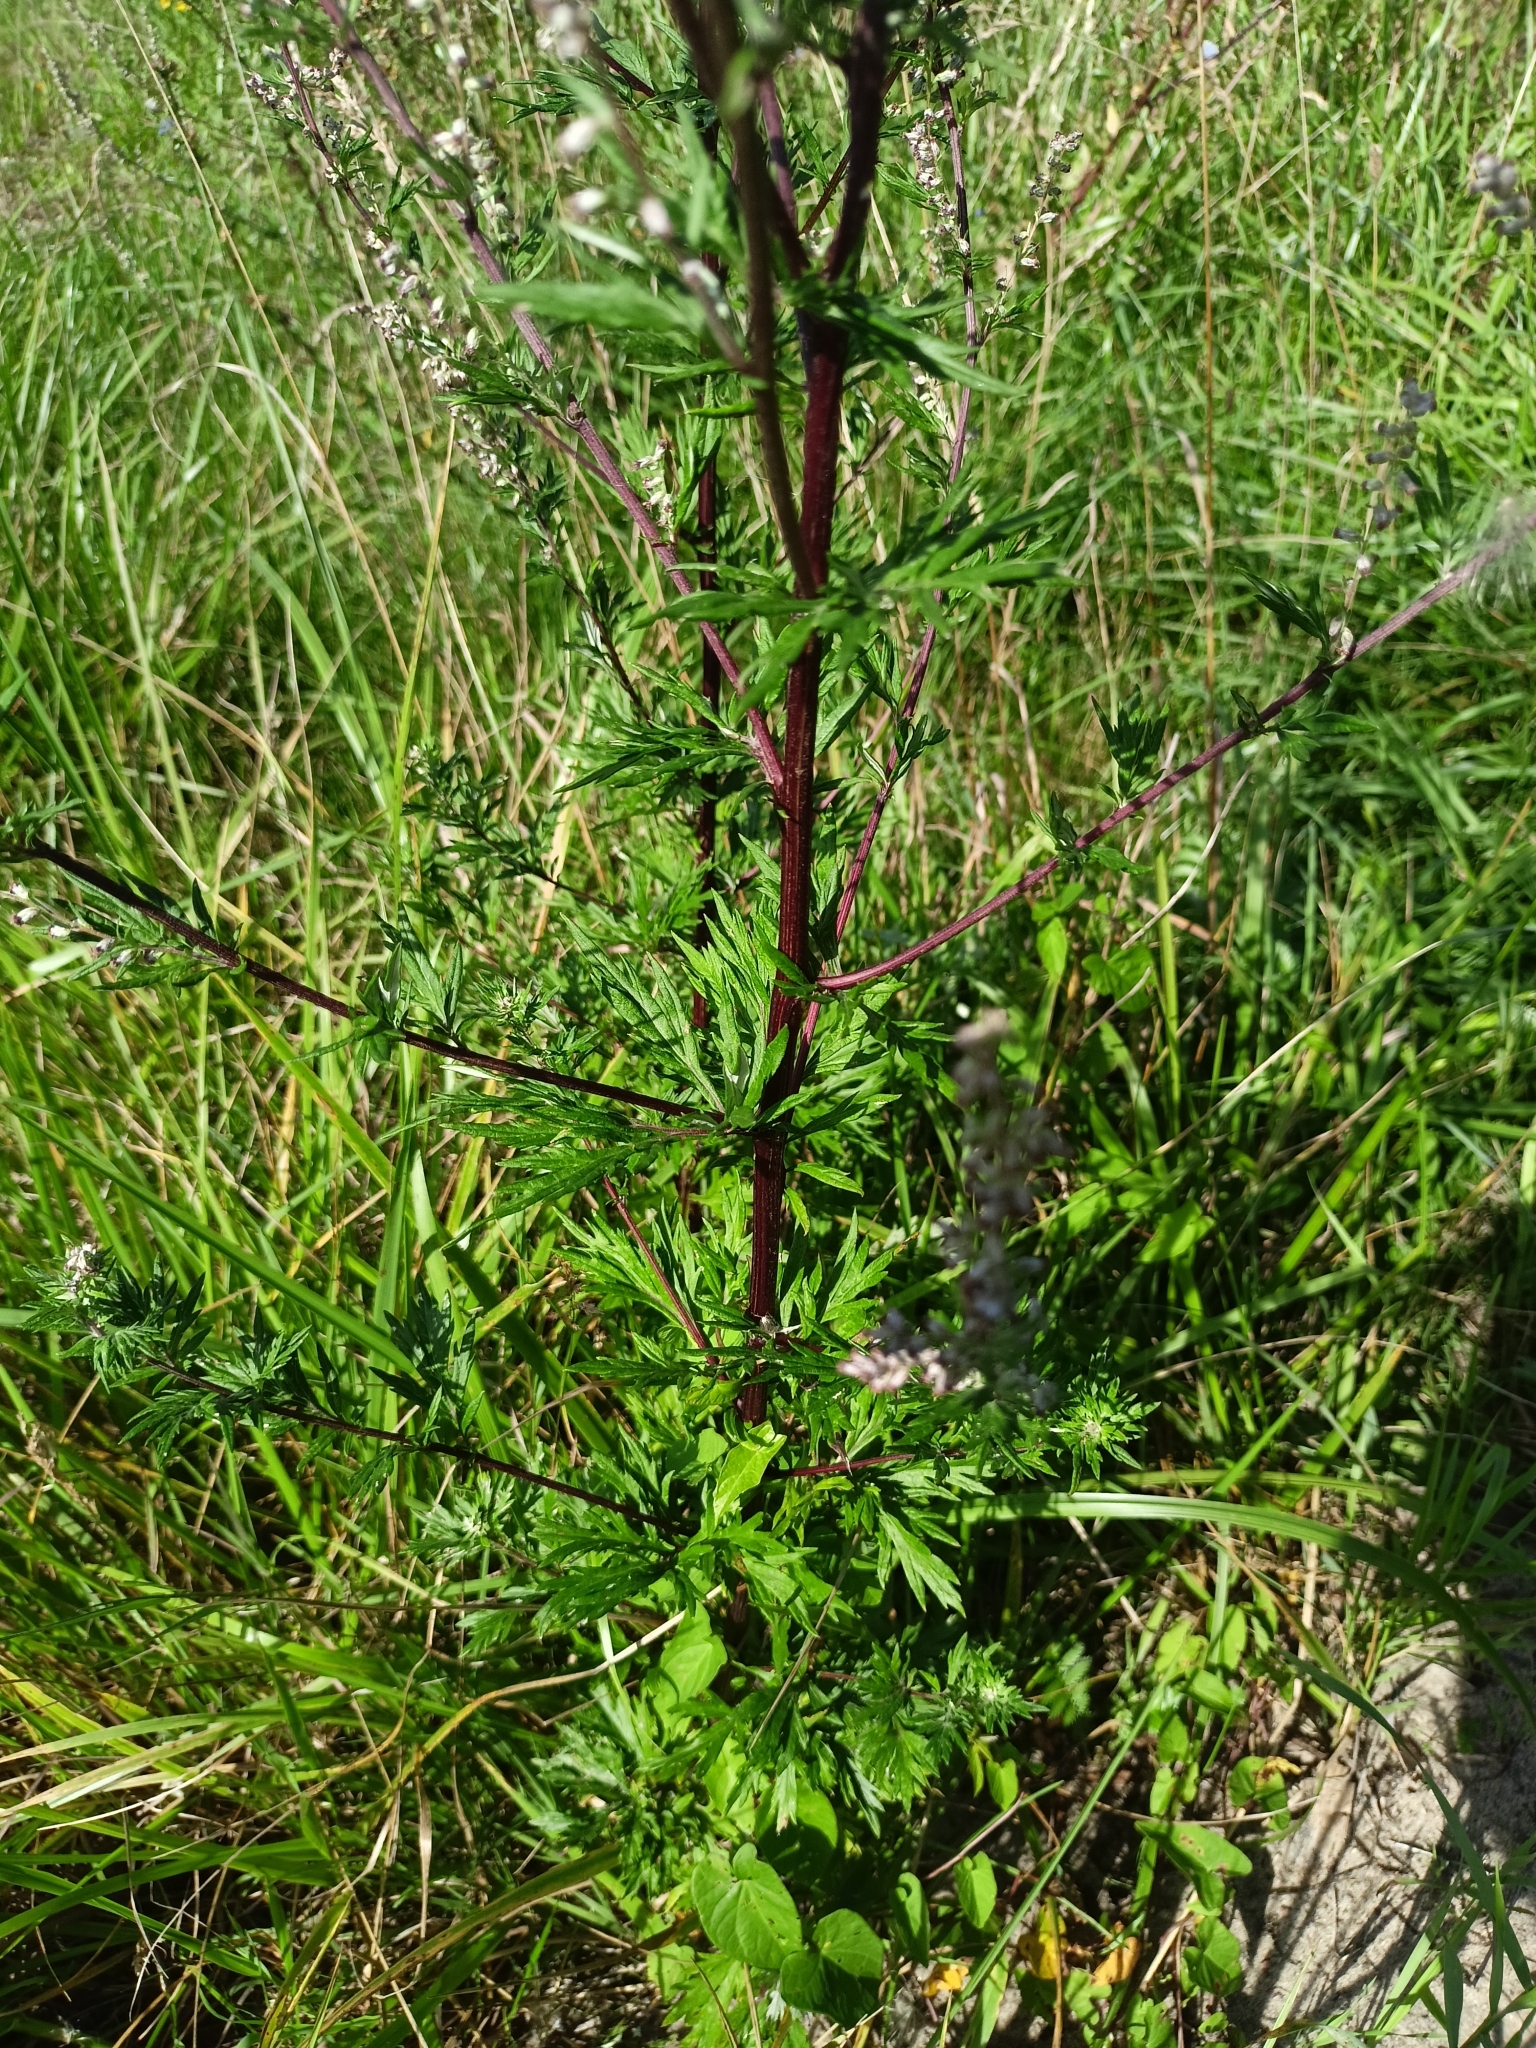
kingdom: Plantae
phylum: Tracheophyta
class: Magnoliopsida
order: Asterales
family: Asteraceae
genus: Artemisia
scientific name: Artemisia vulgaris
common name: Mugwort
